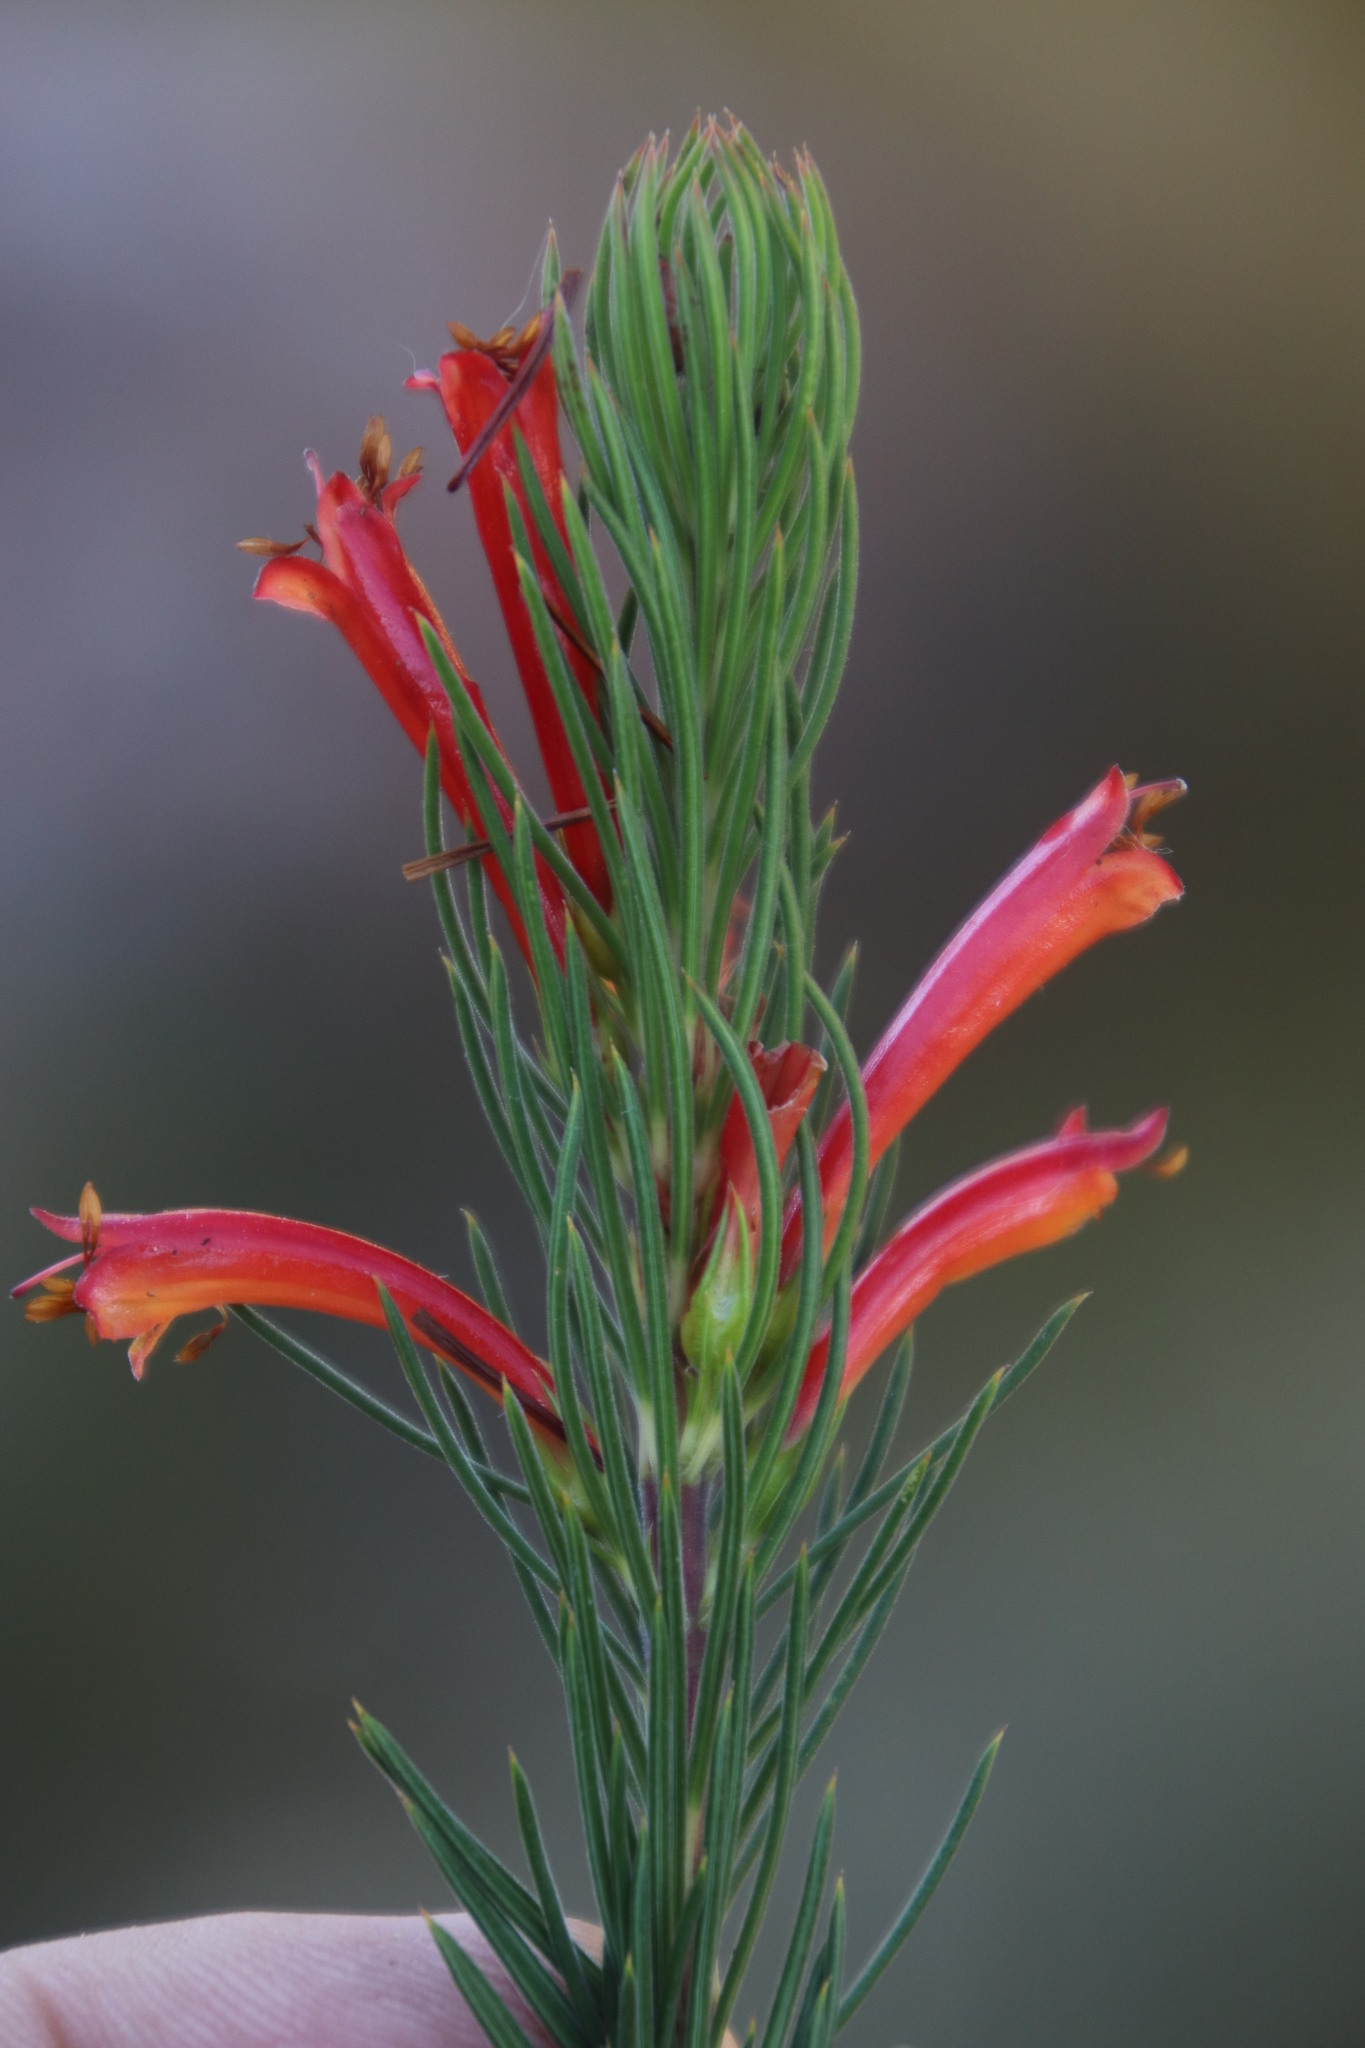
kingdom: Plantae
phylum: Tracheophyta
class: Magnoliopsida
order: Ericales
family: Ericaceae
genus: Erica
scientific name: Erica grandiflora
